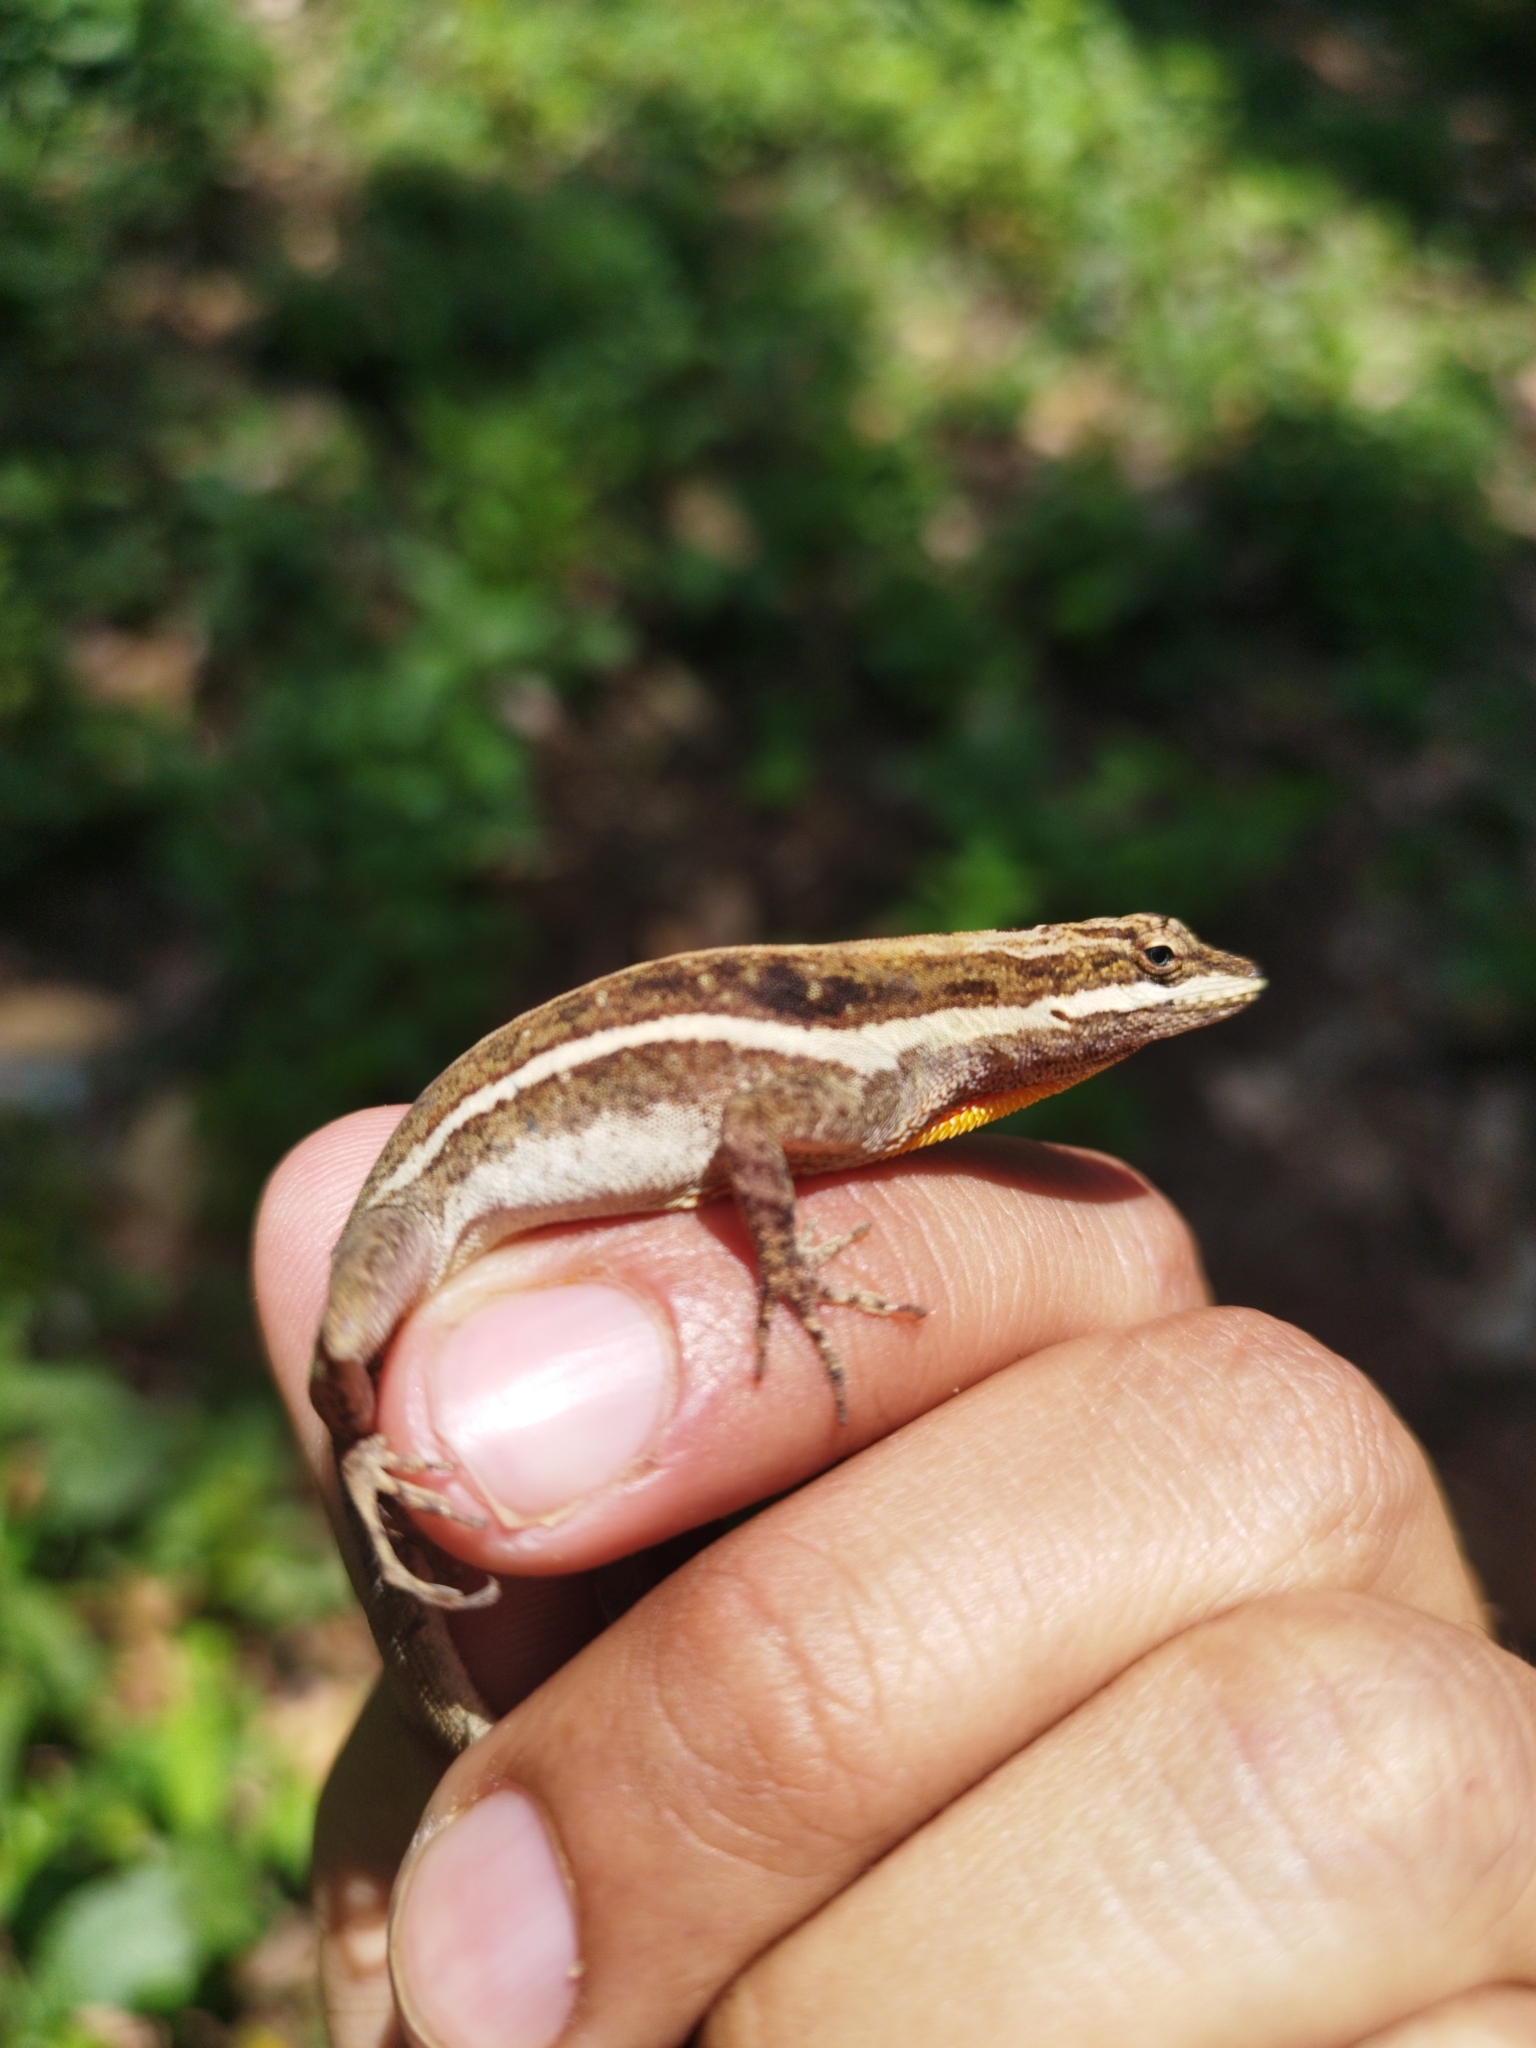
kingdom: Animalia
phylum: Chordata
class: Squamata
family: Dactyloidae
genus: Anolis
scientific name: Anolis dunni
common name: Dunn's  anole
